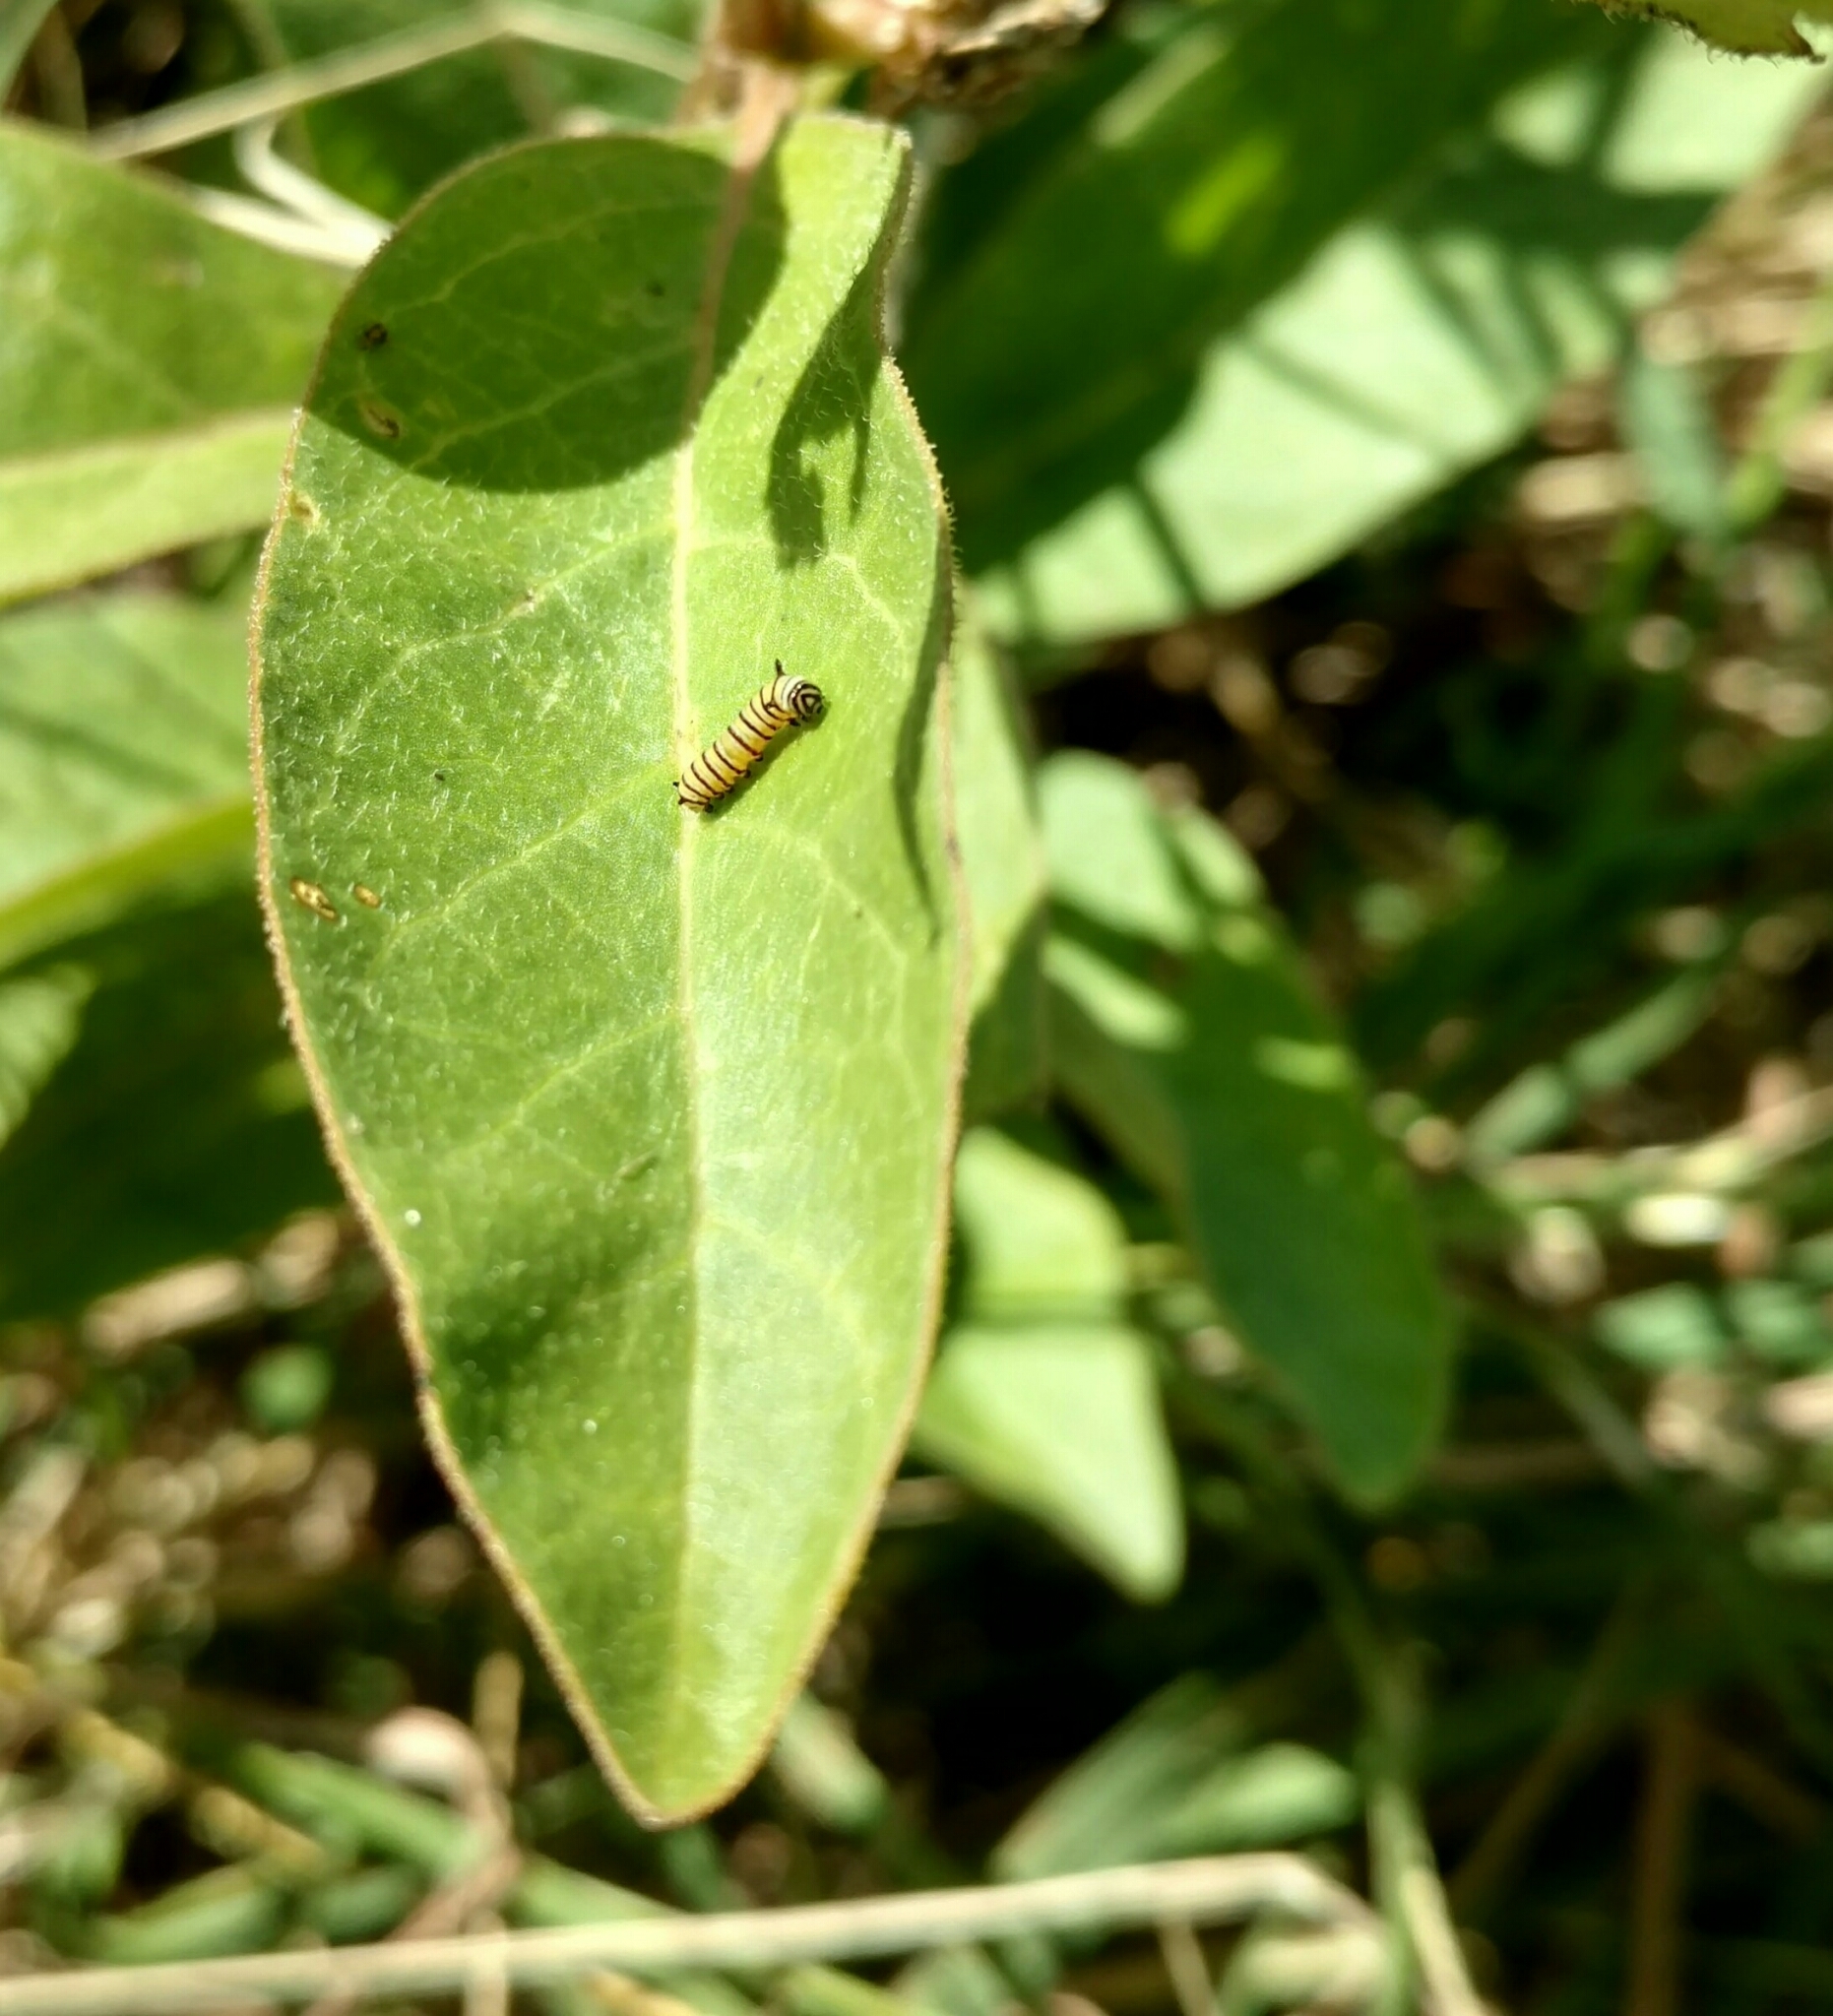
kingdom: Animalia
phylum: Arthropoda
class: Insecta
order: Lepidoptera
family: Nymphalidae
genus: Danaus
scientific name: Danaus plexippus
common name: Monarch
